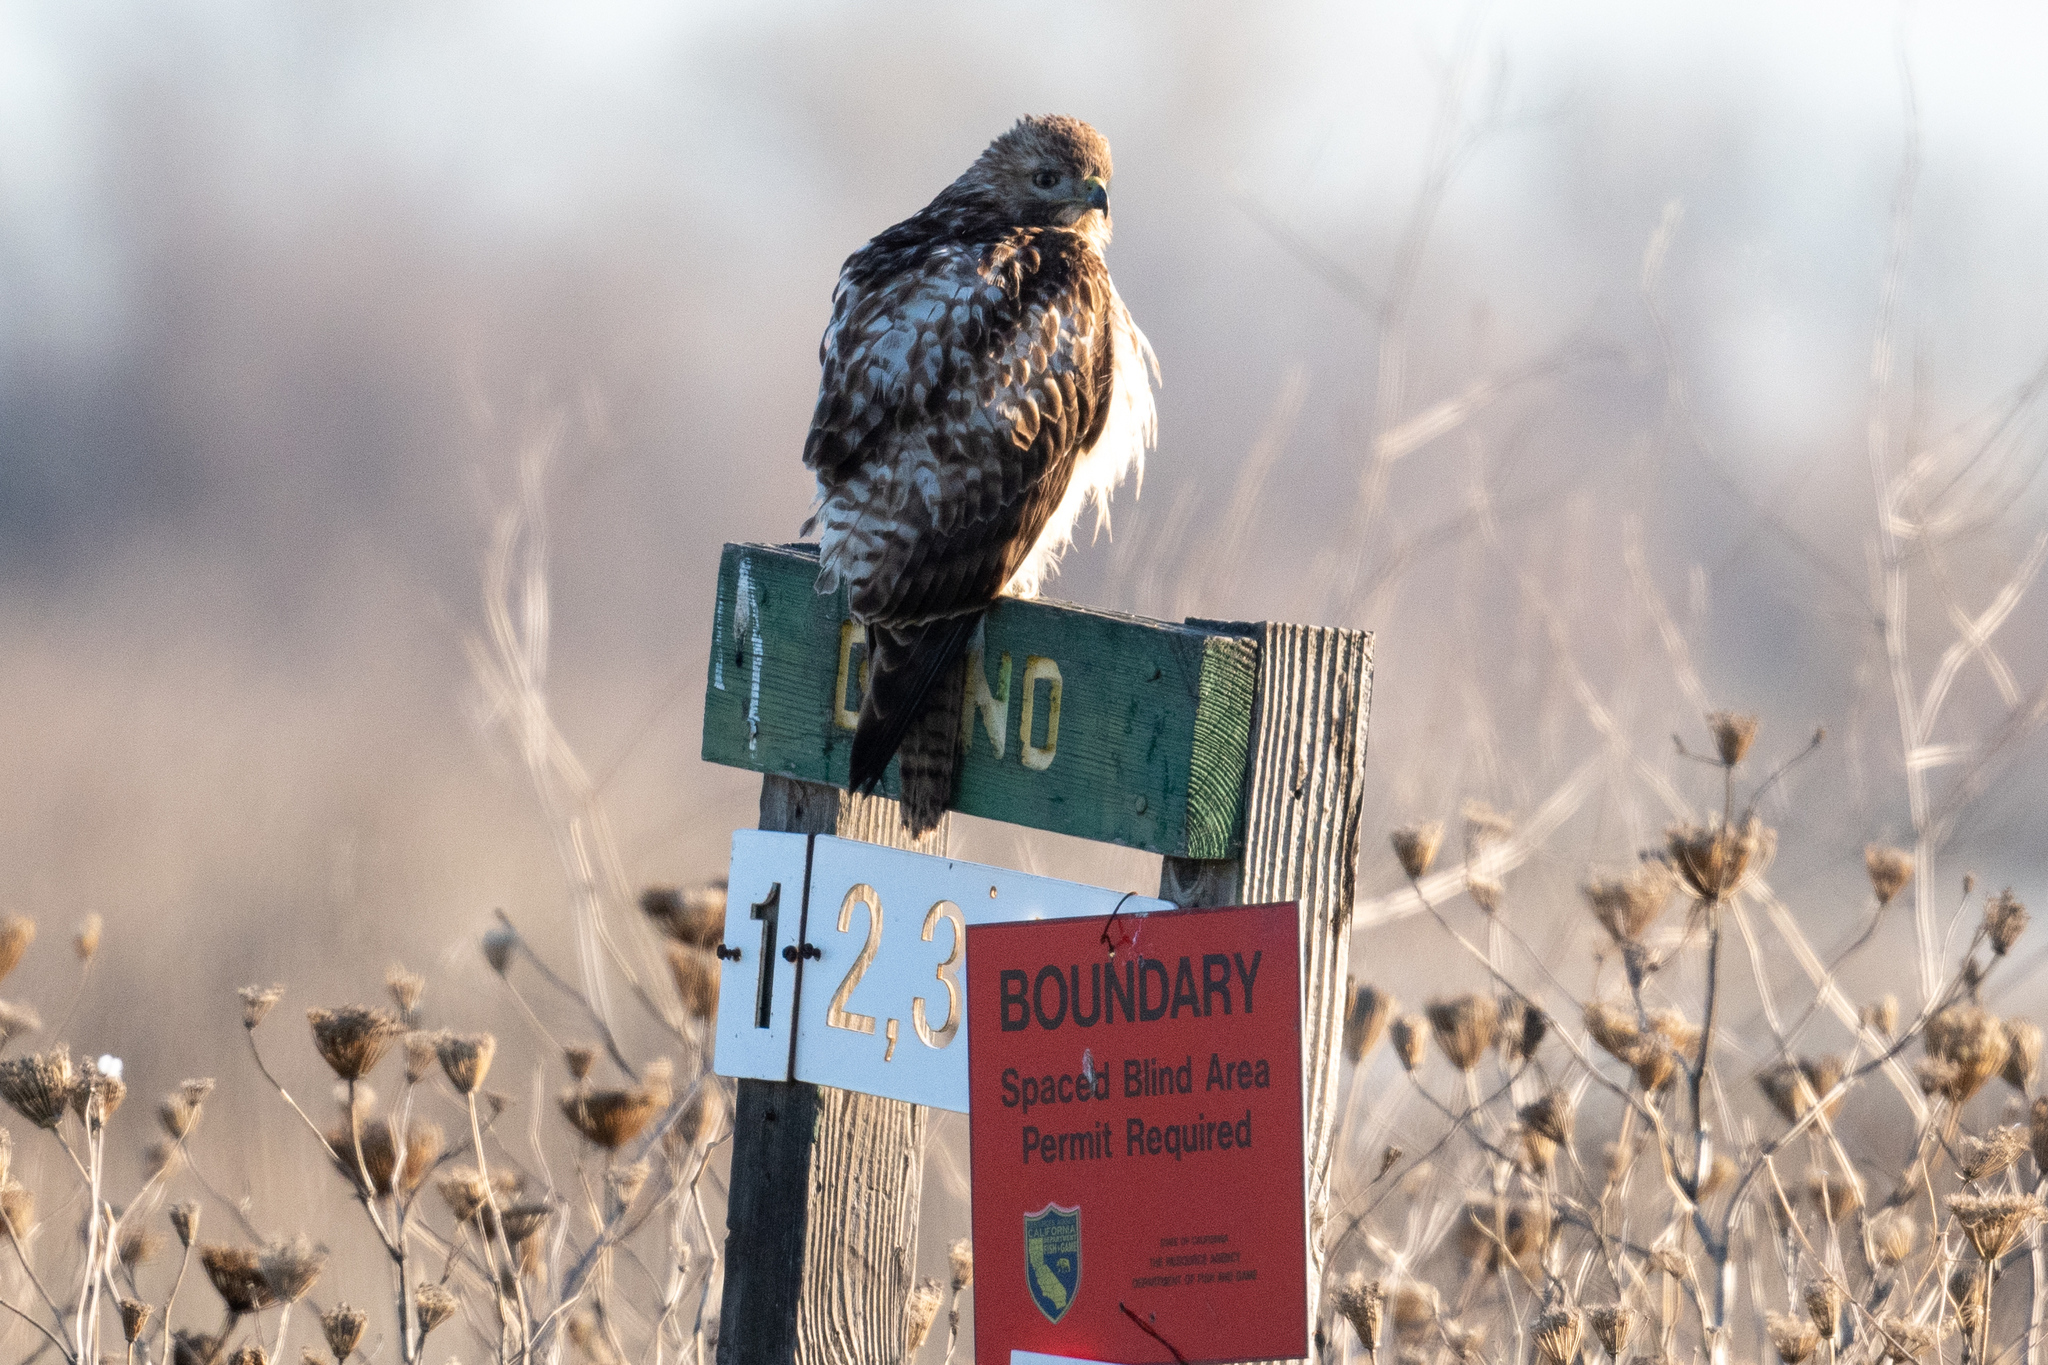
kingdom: Animalia
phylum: Chordata
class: Aves
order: Accipitriformes
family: Accipitridae
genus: Buteo
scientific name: Buteo jamaicensis
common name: Red-tailed hawk
